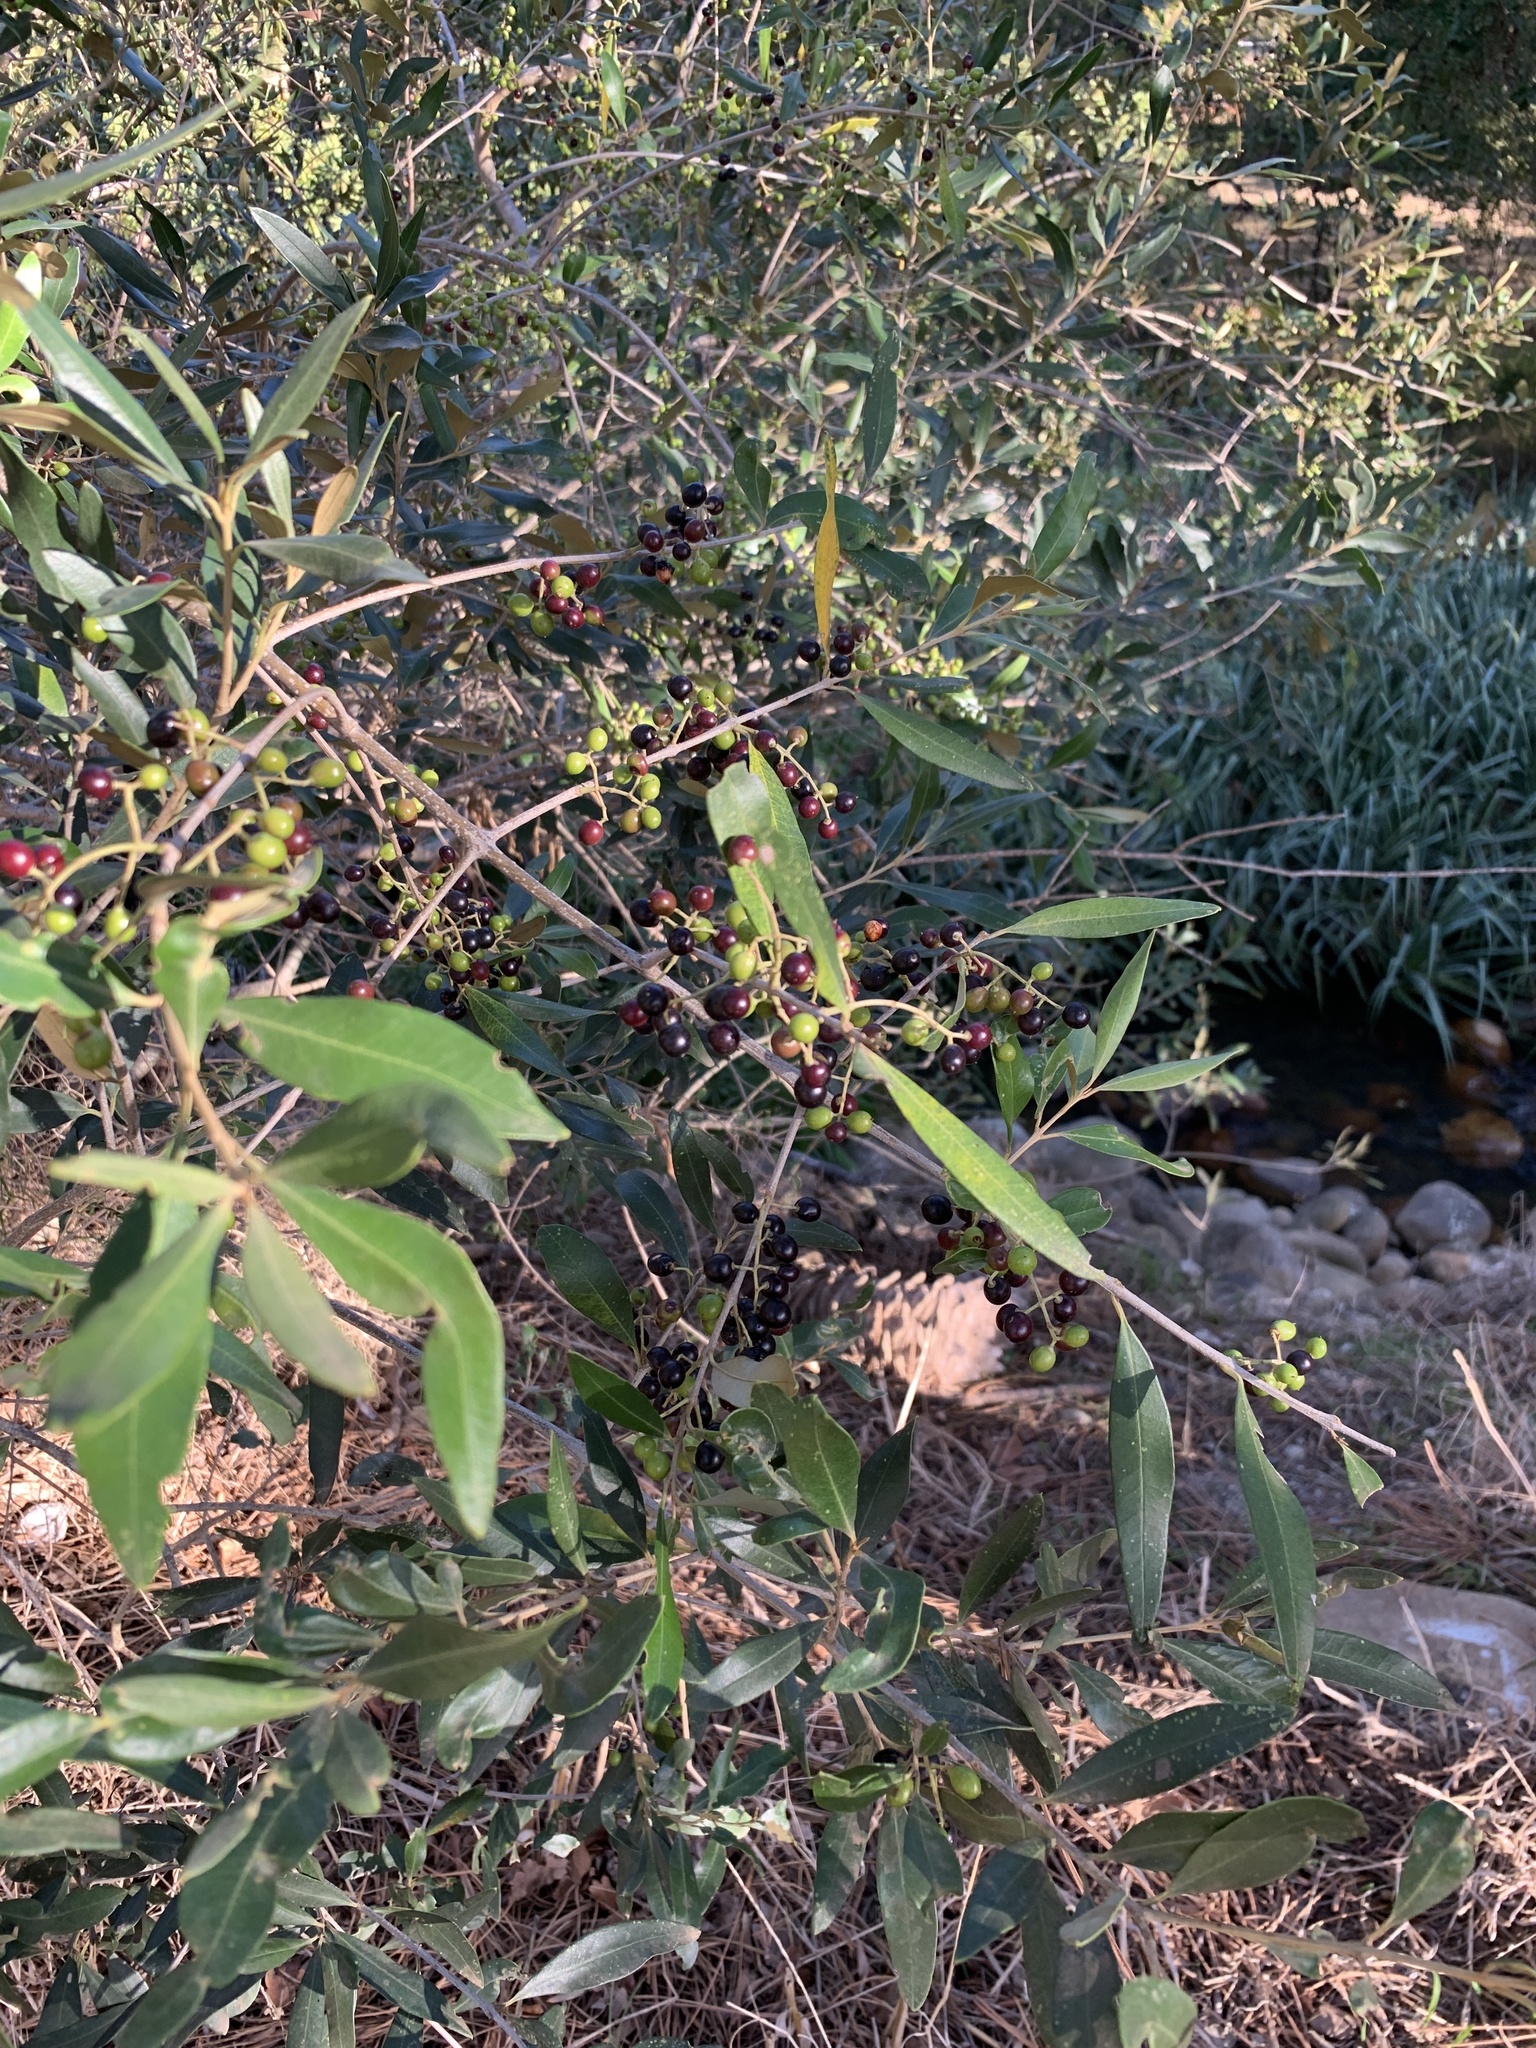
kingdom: Plantae
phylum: Tracheophyta
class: Magnoliopsida
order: Lamiales
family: Oleaceae
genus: Olea
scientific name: Olea europaea
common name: Olive
